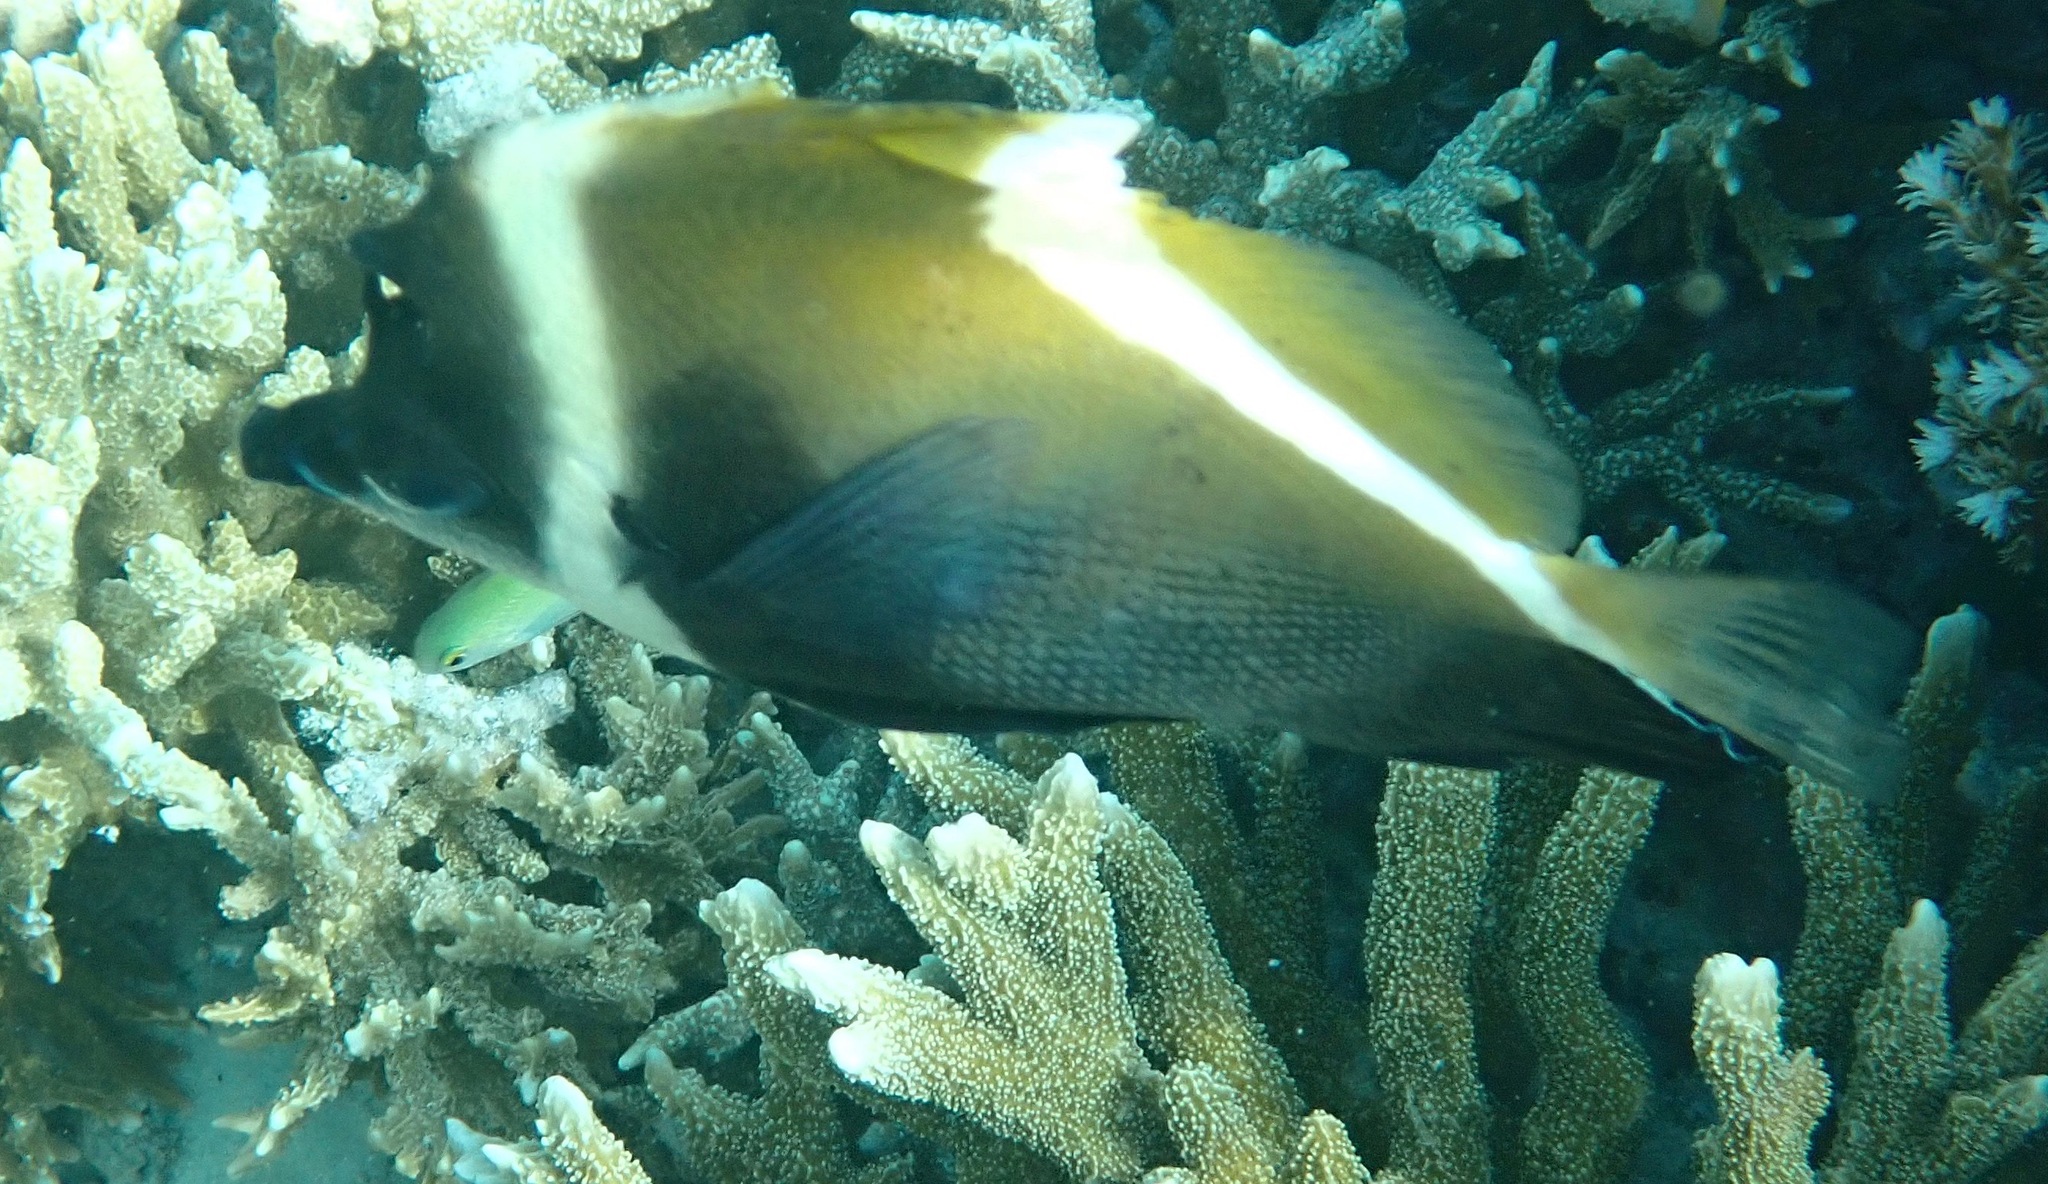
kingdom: Animalia
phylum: Chordata
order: Perciformes
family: Chaetodontidae
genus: Heniochus
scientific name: Heniochus varius
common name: Horned bannerfish
